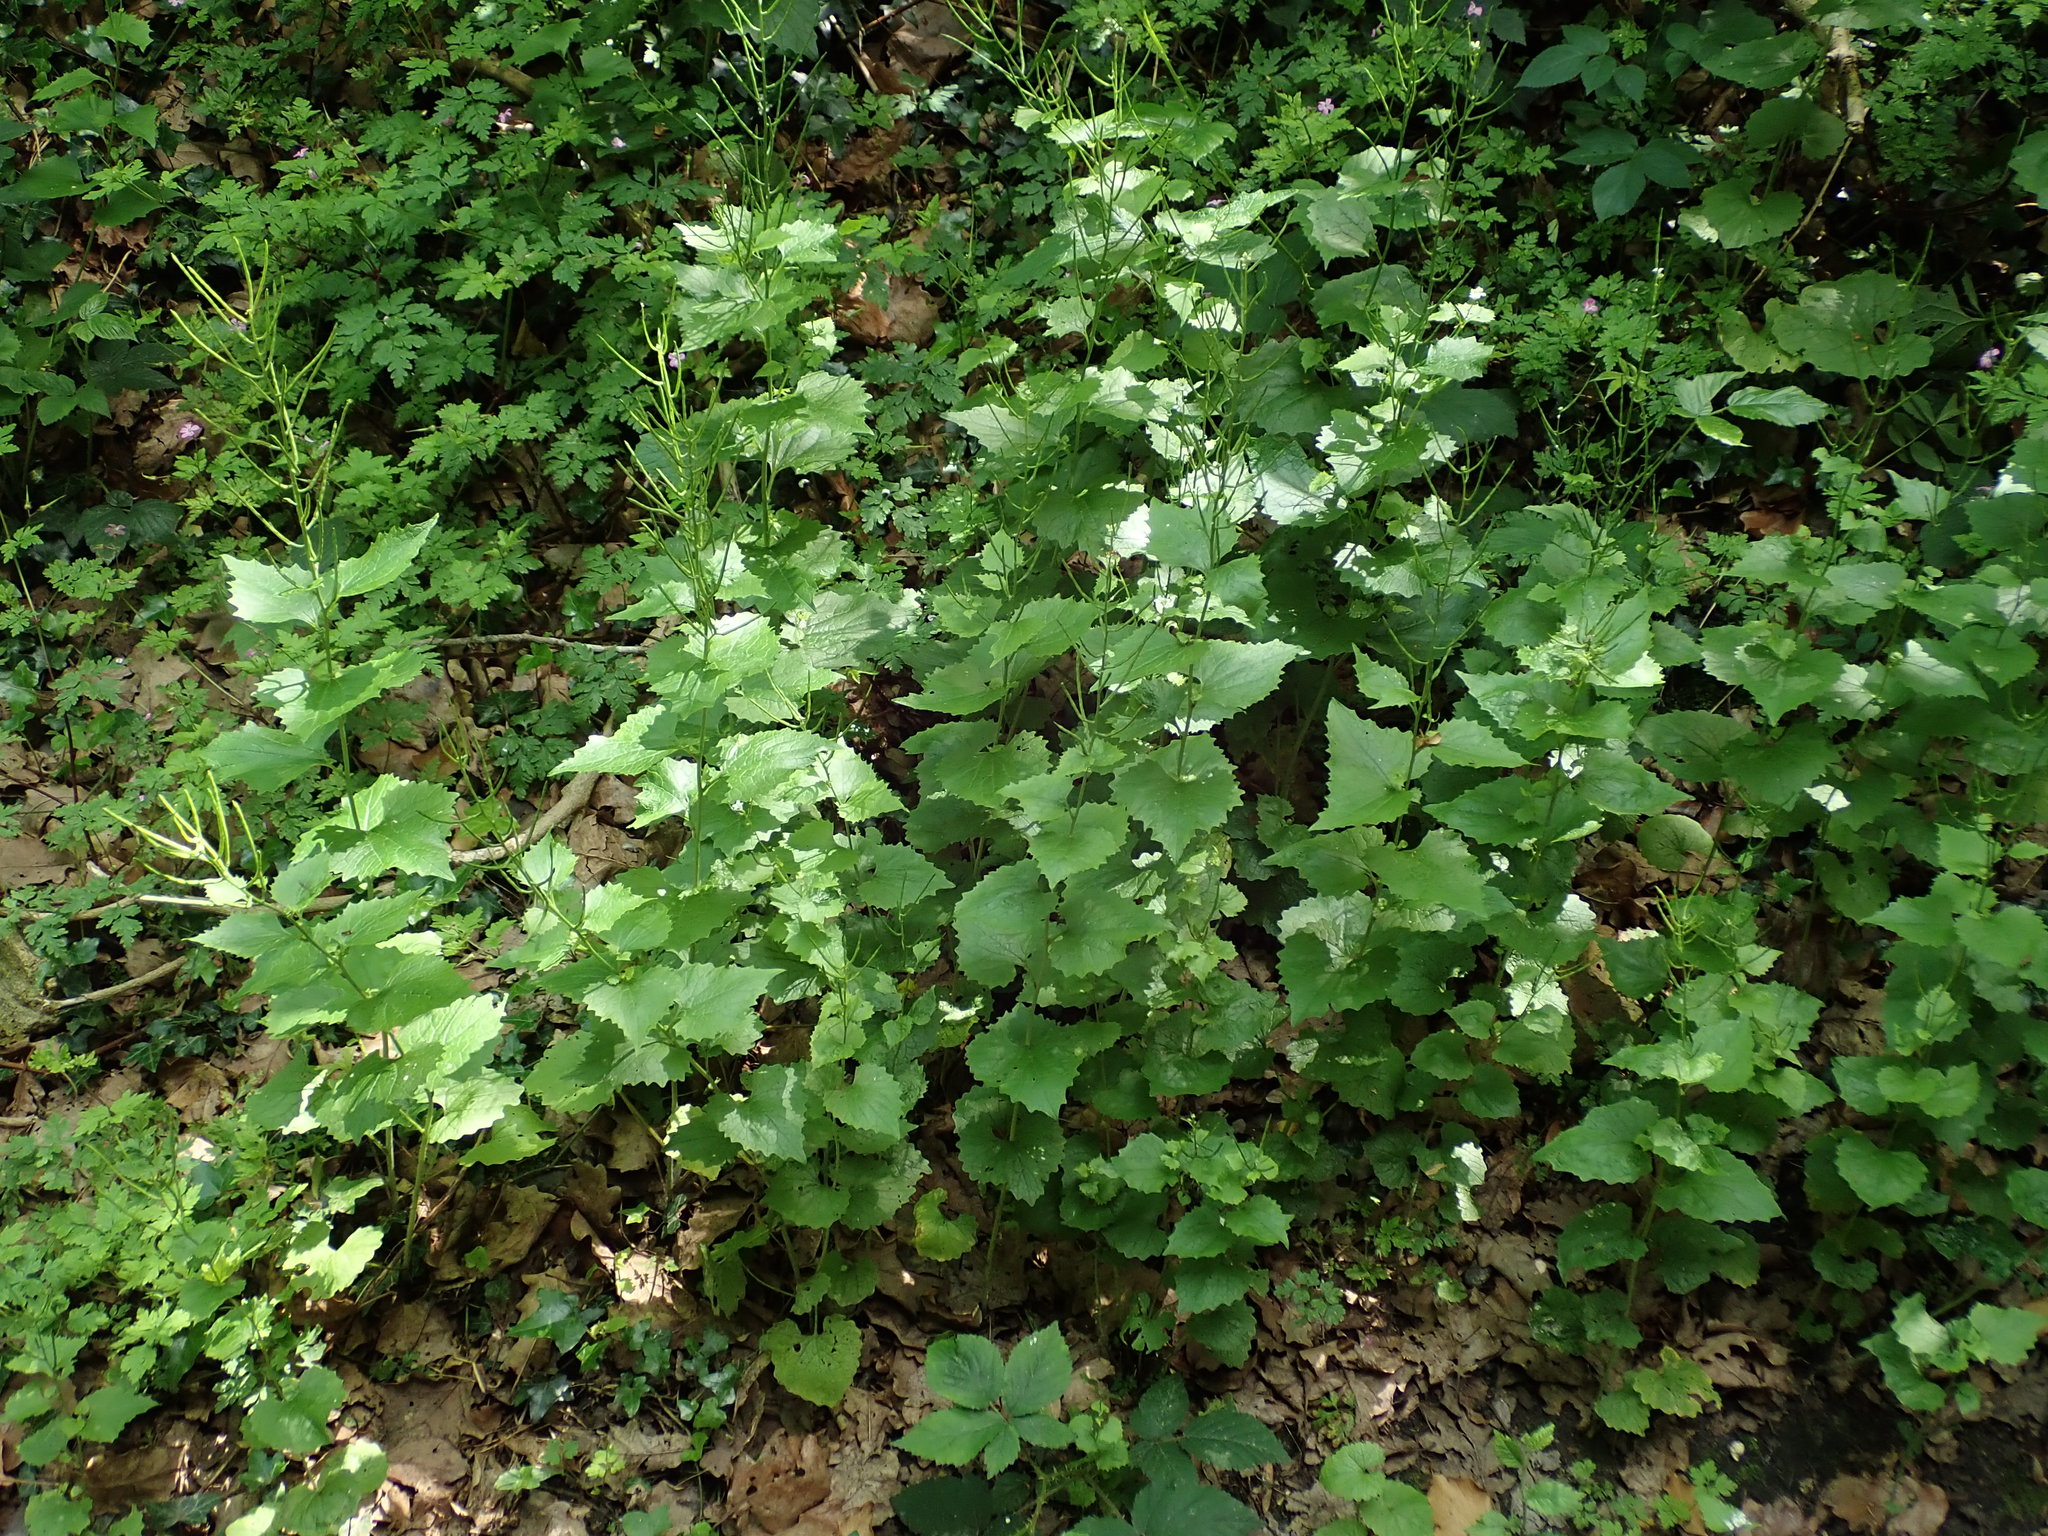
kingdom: Plantae
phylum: Tracheophyta
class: Magnoliopsida
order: Brassicales
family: Brassicaceae
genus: Alliaria
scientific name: Alliaria petiolata
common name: Garlic mustard
